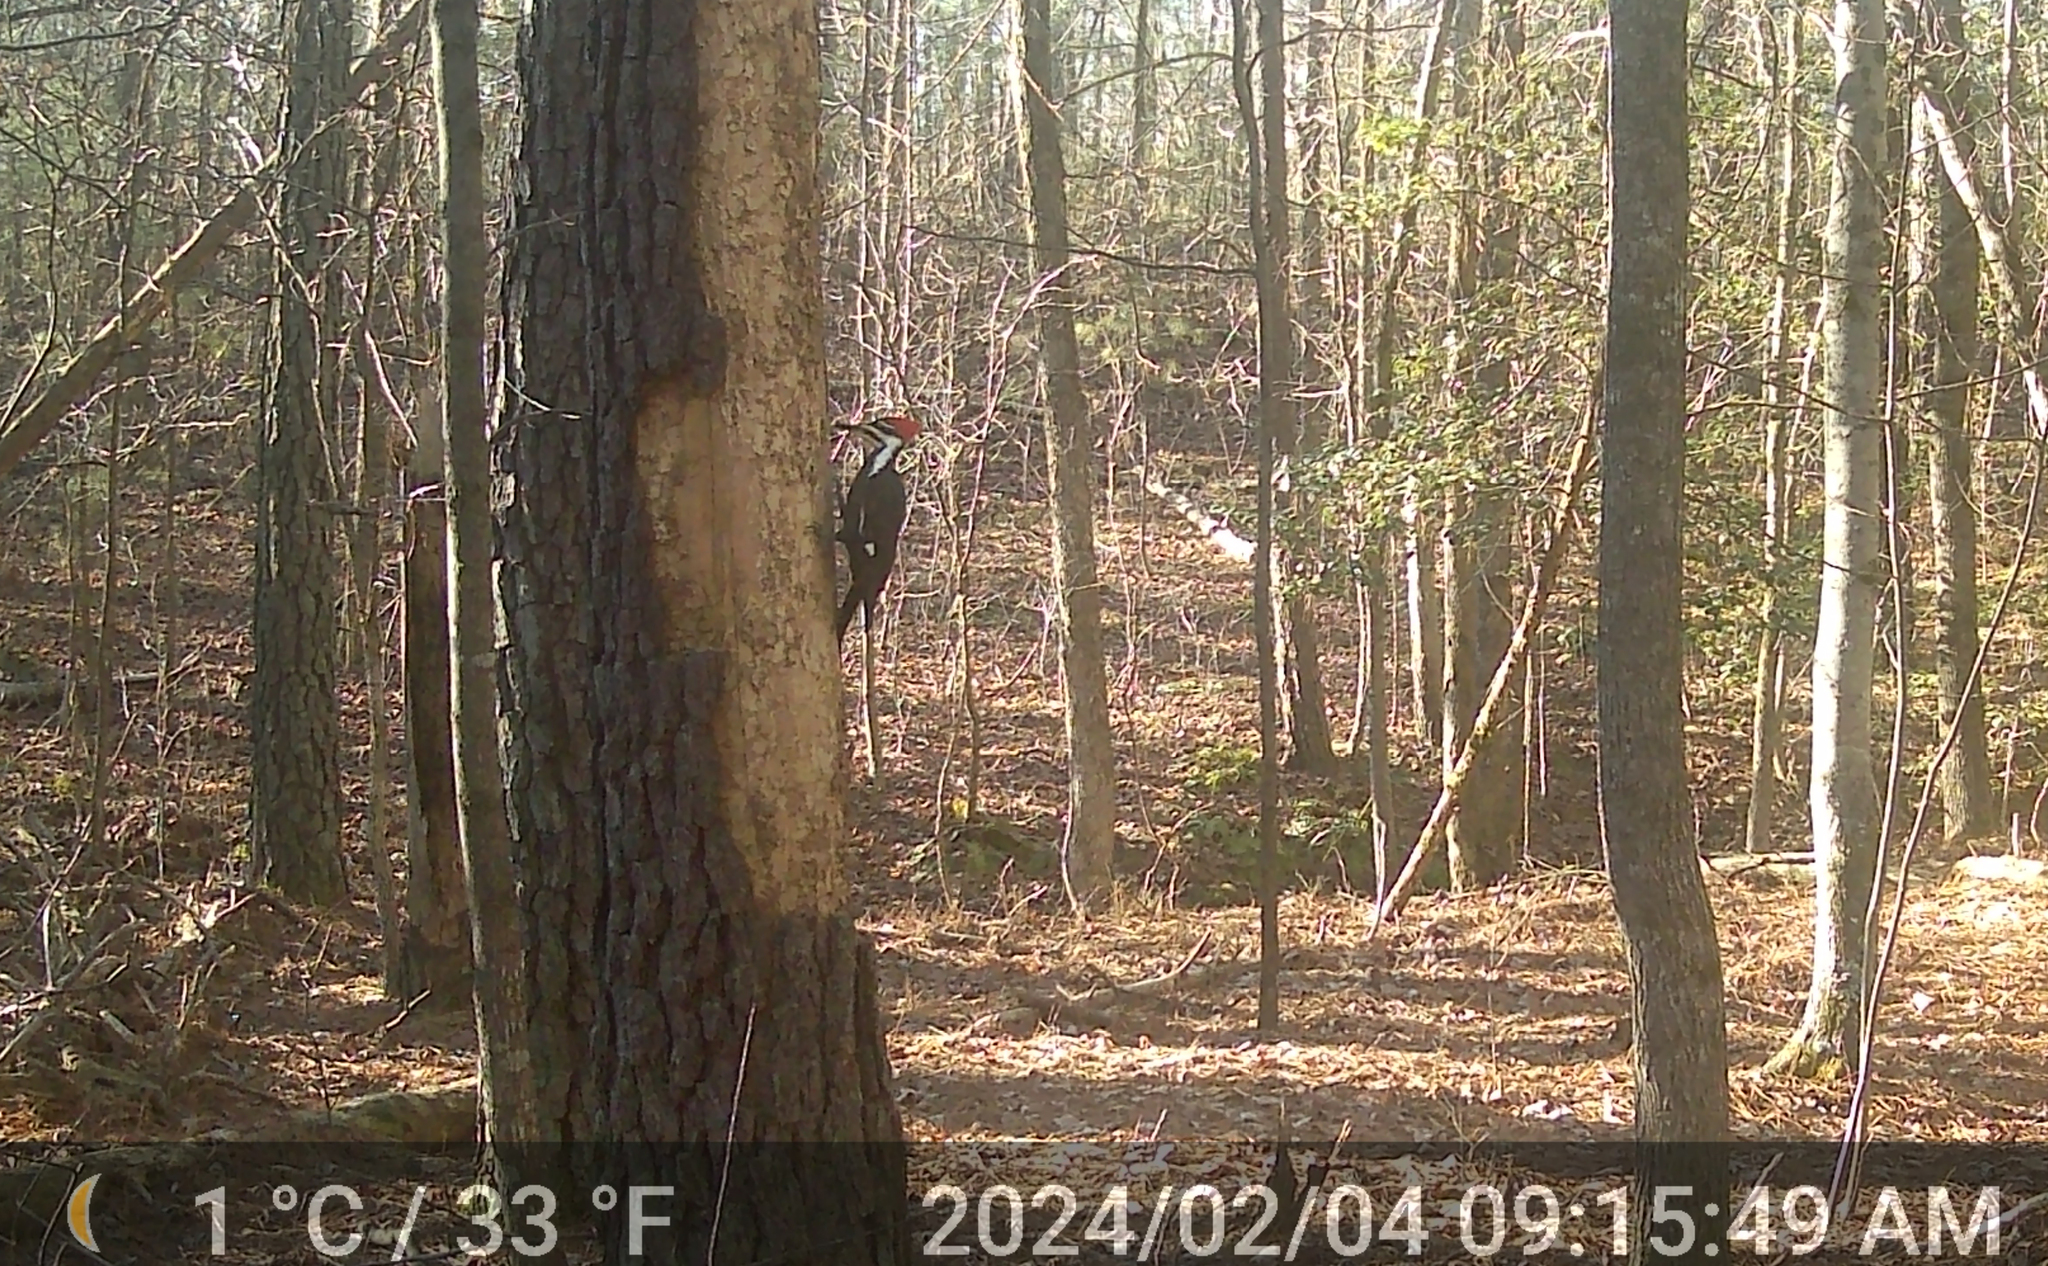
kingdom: Animalia
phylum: Chordata
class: Aves
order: Piciformes
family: Picidae
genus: Dryocopus
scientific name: Dryocopus pileatus
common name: Pileated woodpecker
